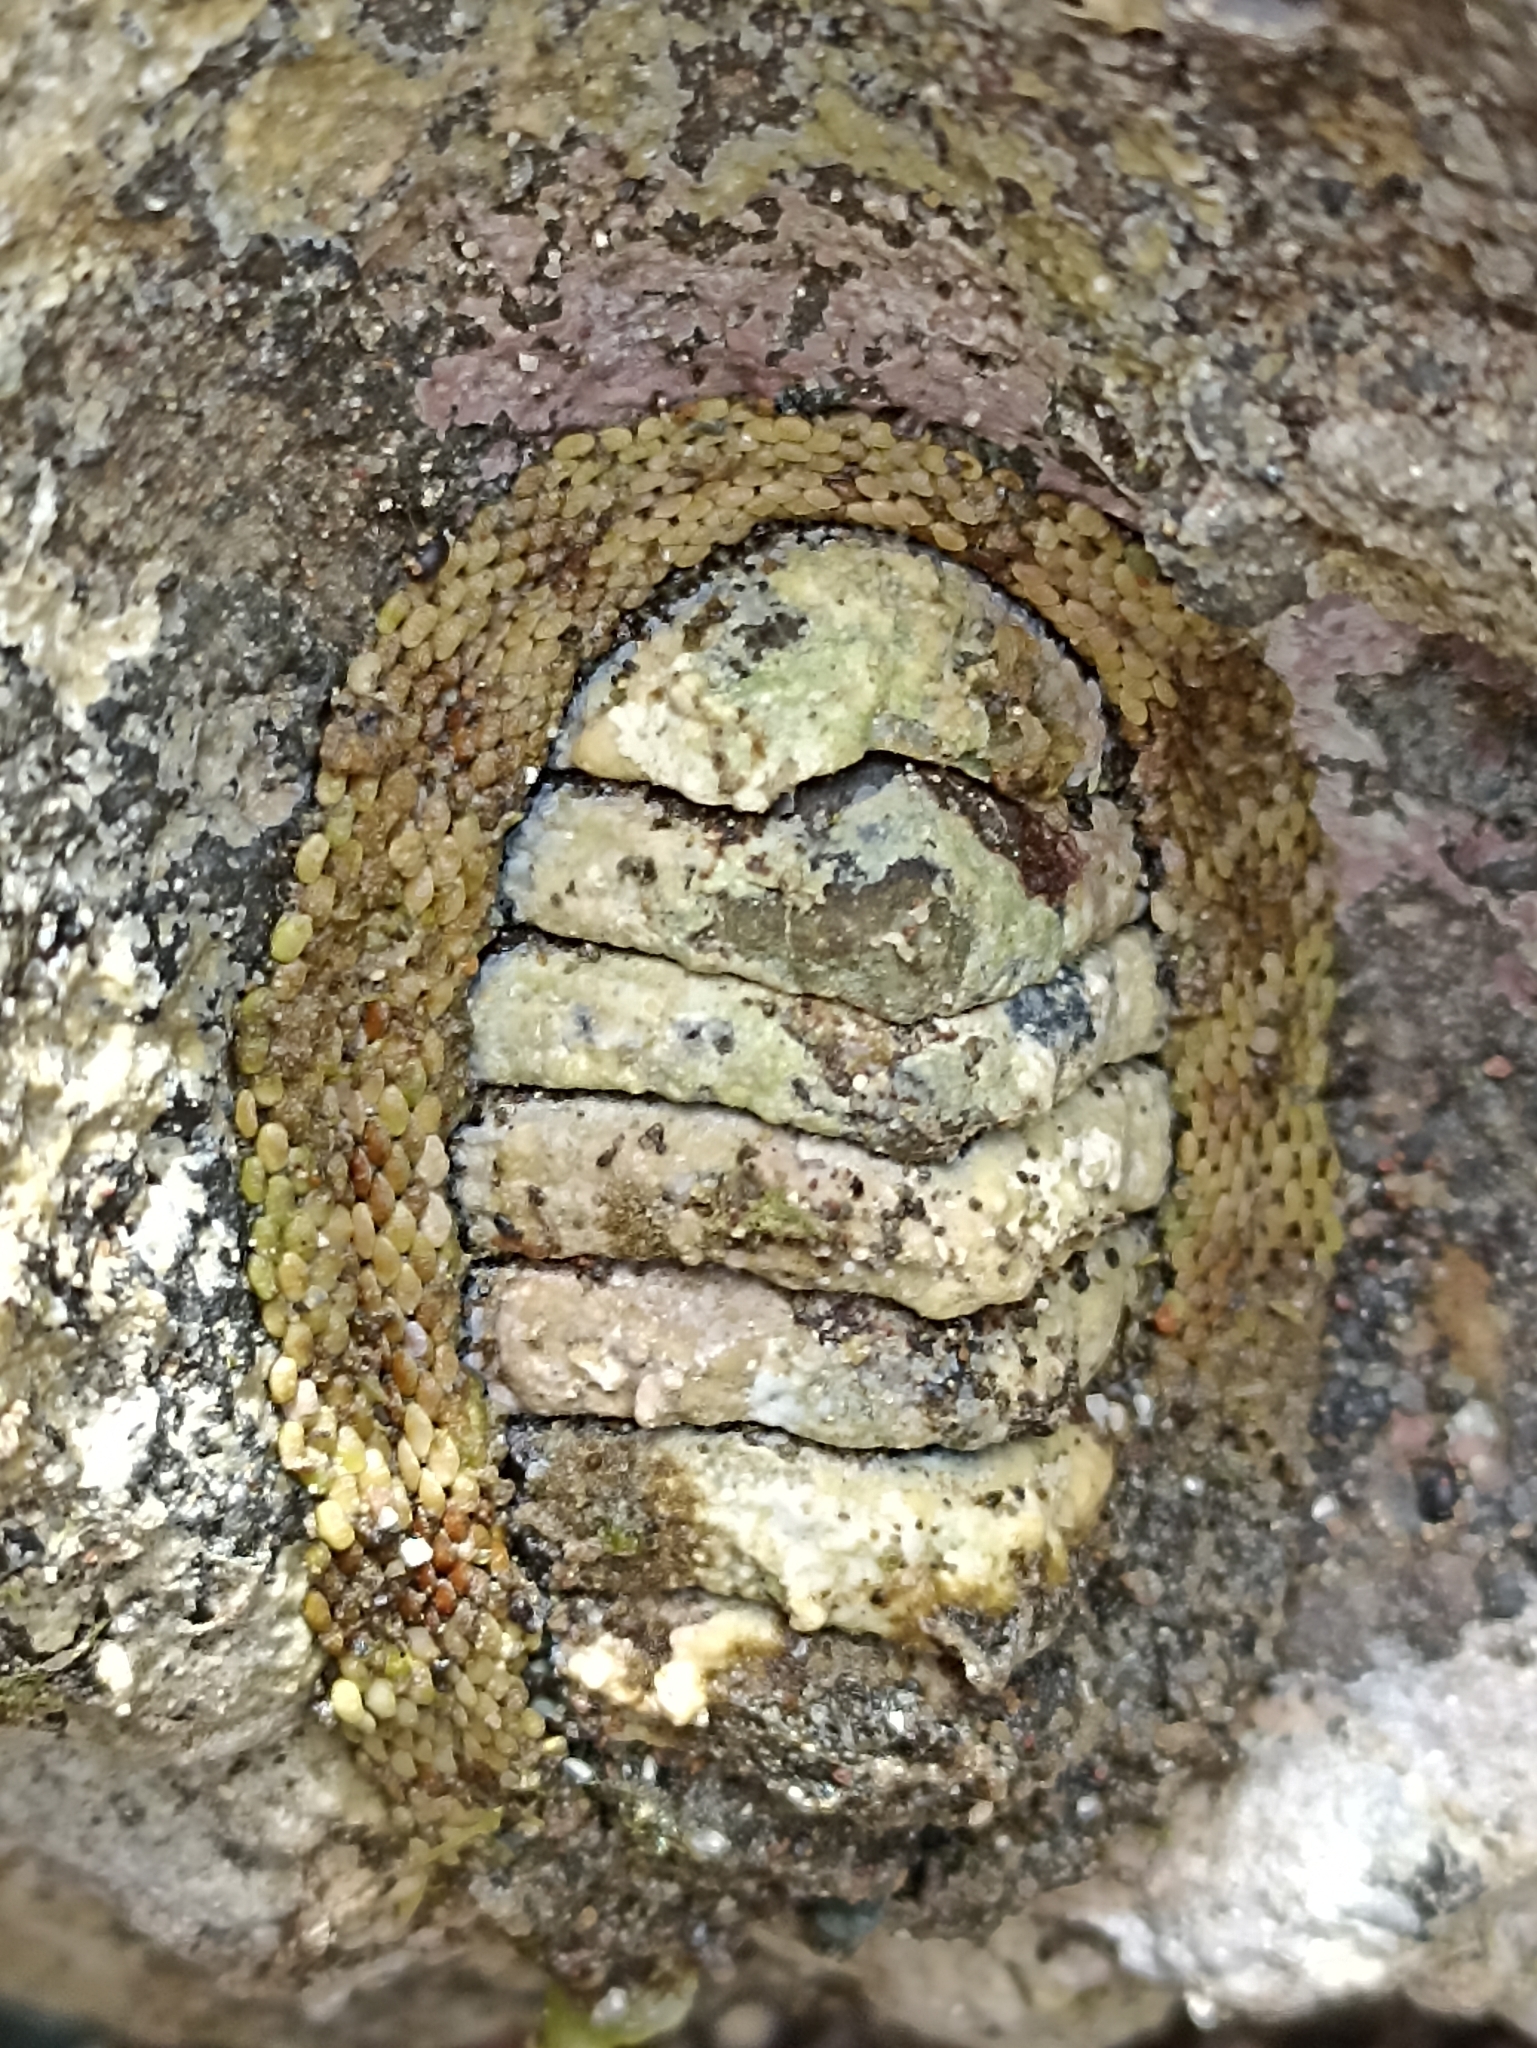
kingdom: Animalia
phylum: Mollusca
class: Polyplacophora
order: Chitonida
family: Chitonidae
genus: Sypharochiton
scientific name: Sypharochiton pelliserpentis
